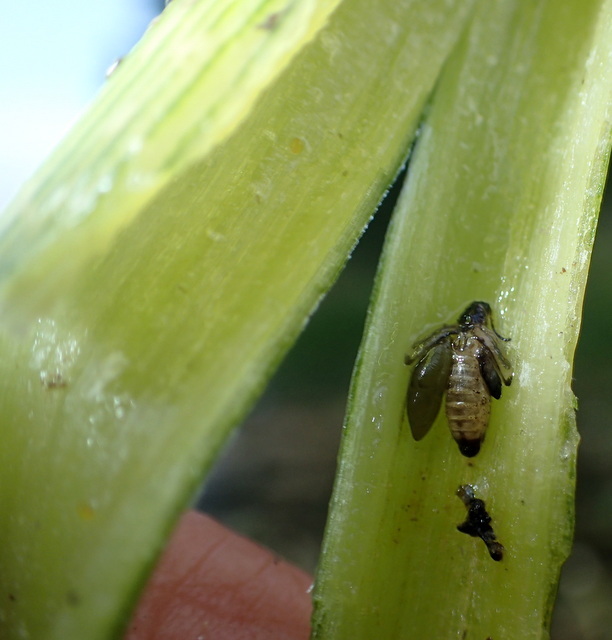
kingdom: Animalia
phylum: Arthropoda
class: Insecta
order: Coleoptera
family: Chrysomelidae
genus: Agasicles
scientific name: Agasicles hygrophila
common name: Alligatorweed flea beetle
